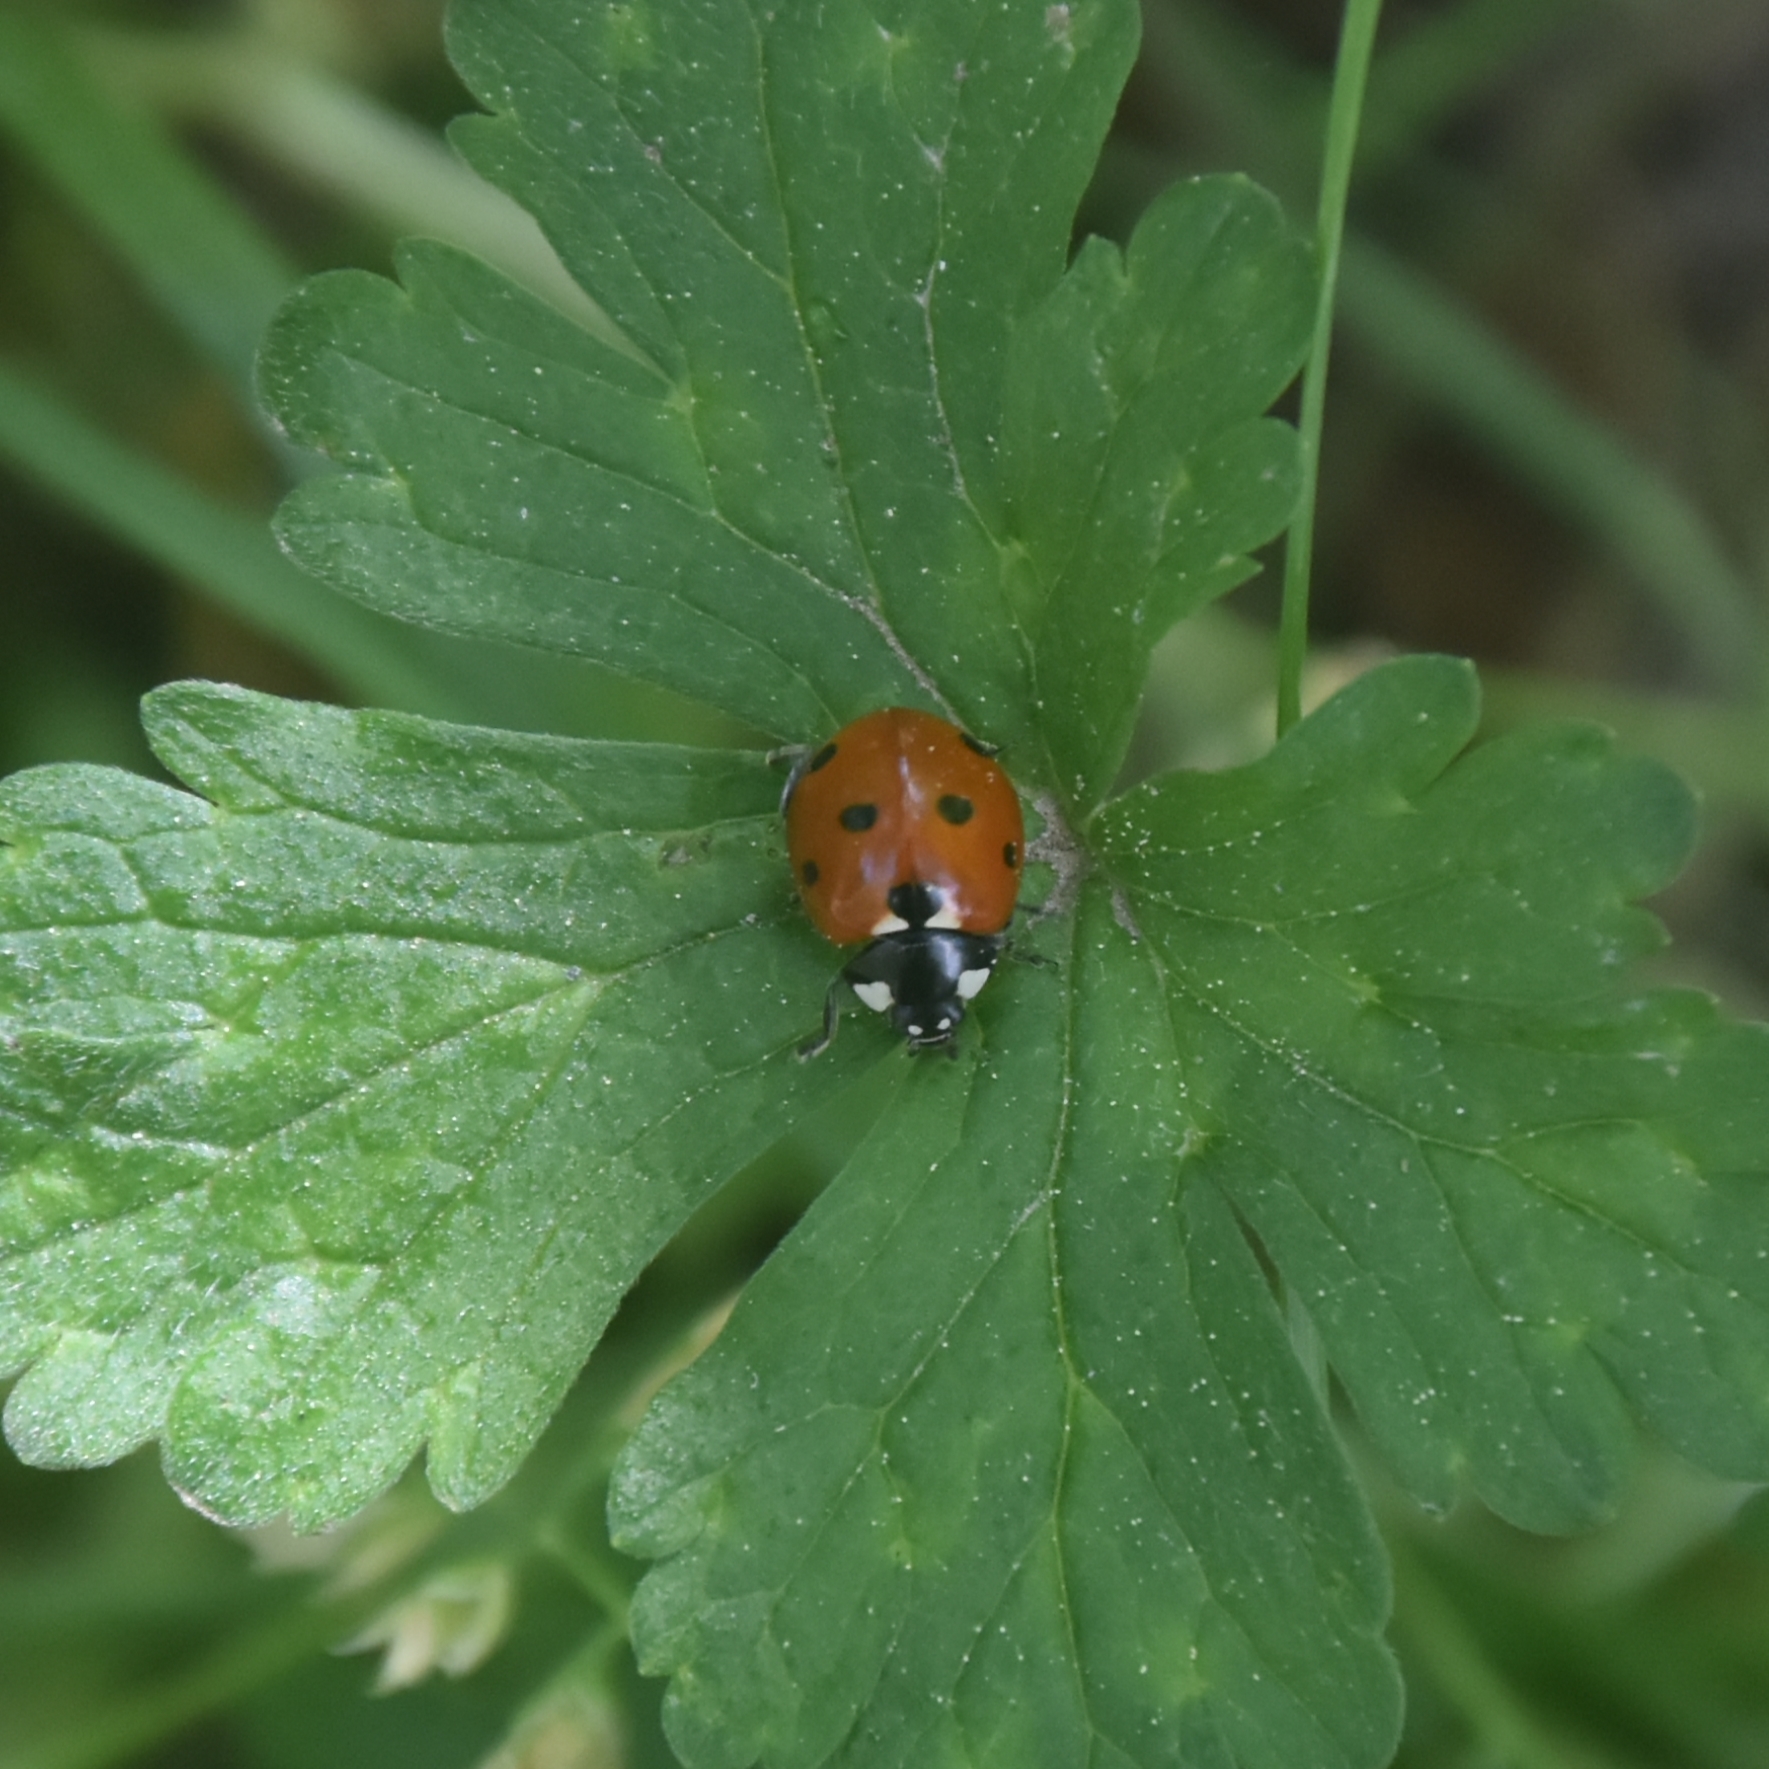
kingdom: Animalia
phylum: Arthropoda
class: Insecta
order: Coleoptera
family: Coccinellidae
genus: Coccinella
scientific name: Coccinella septempunctata
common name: Sevenspotted lady beetle
